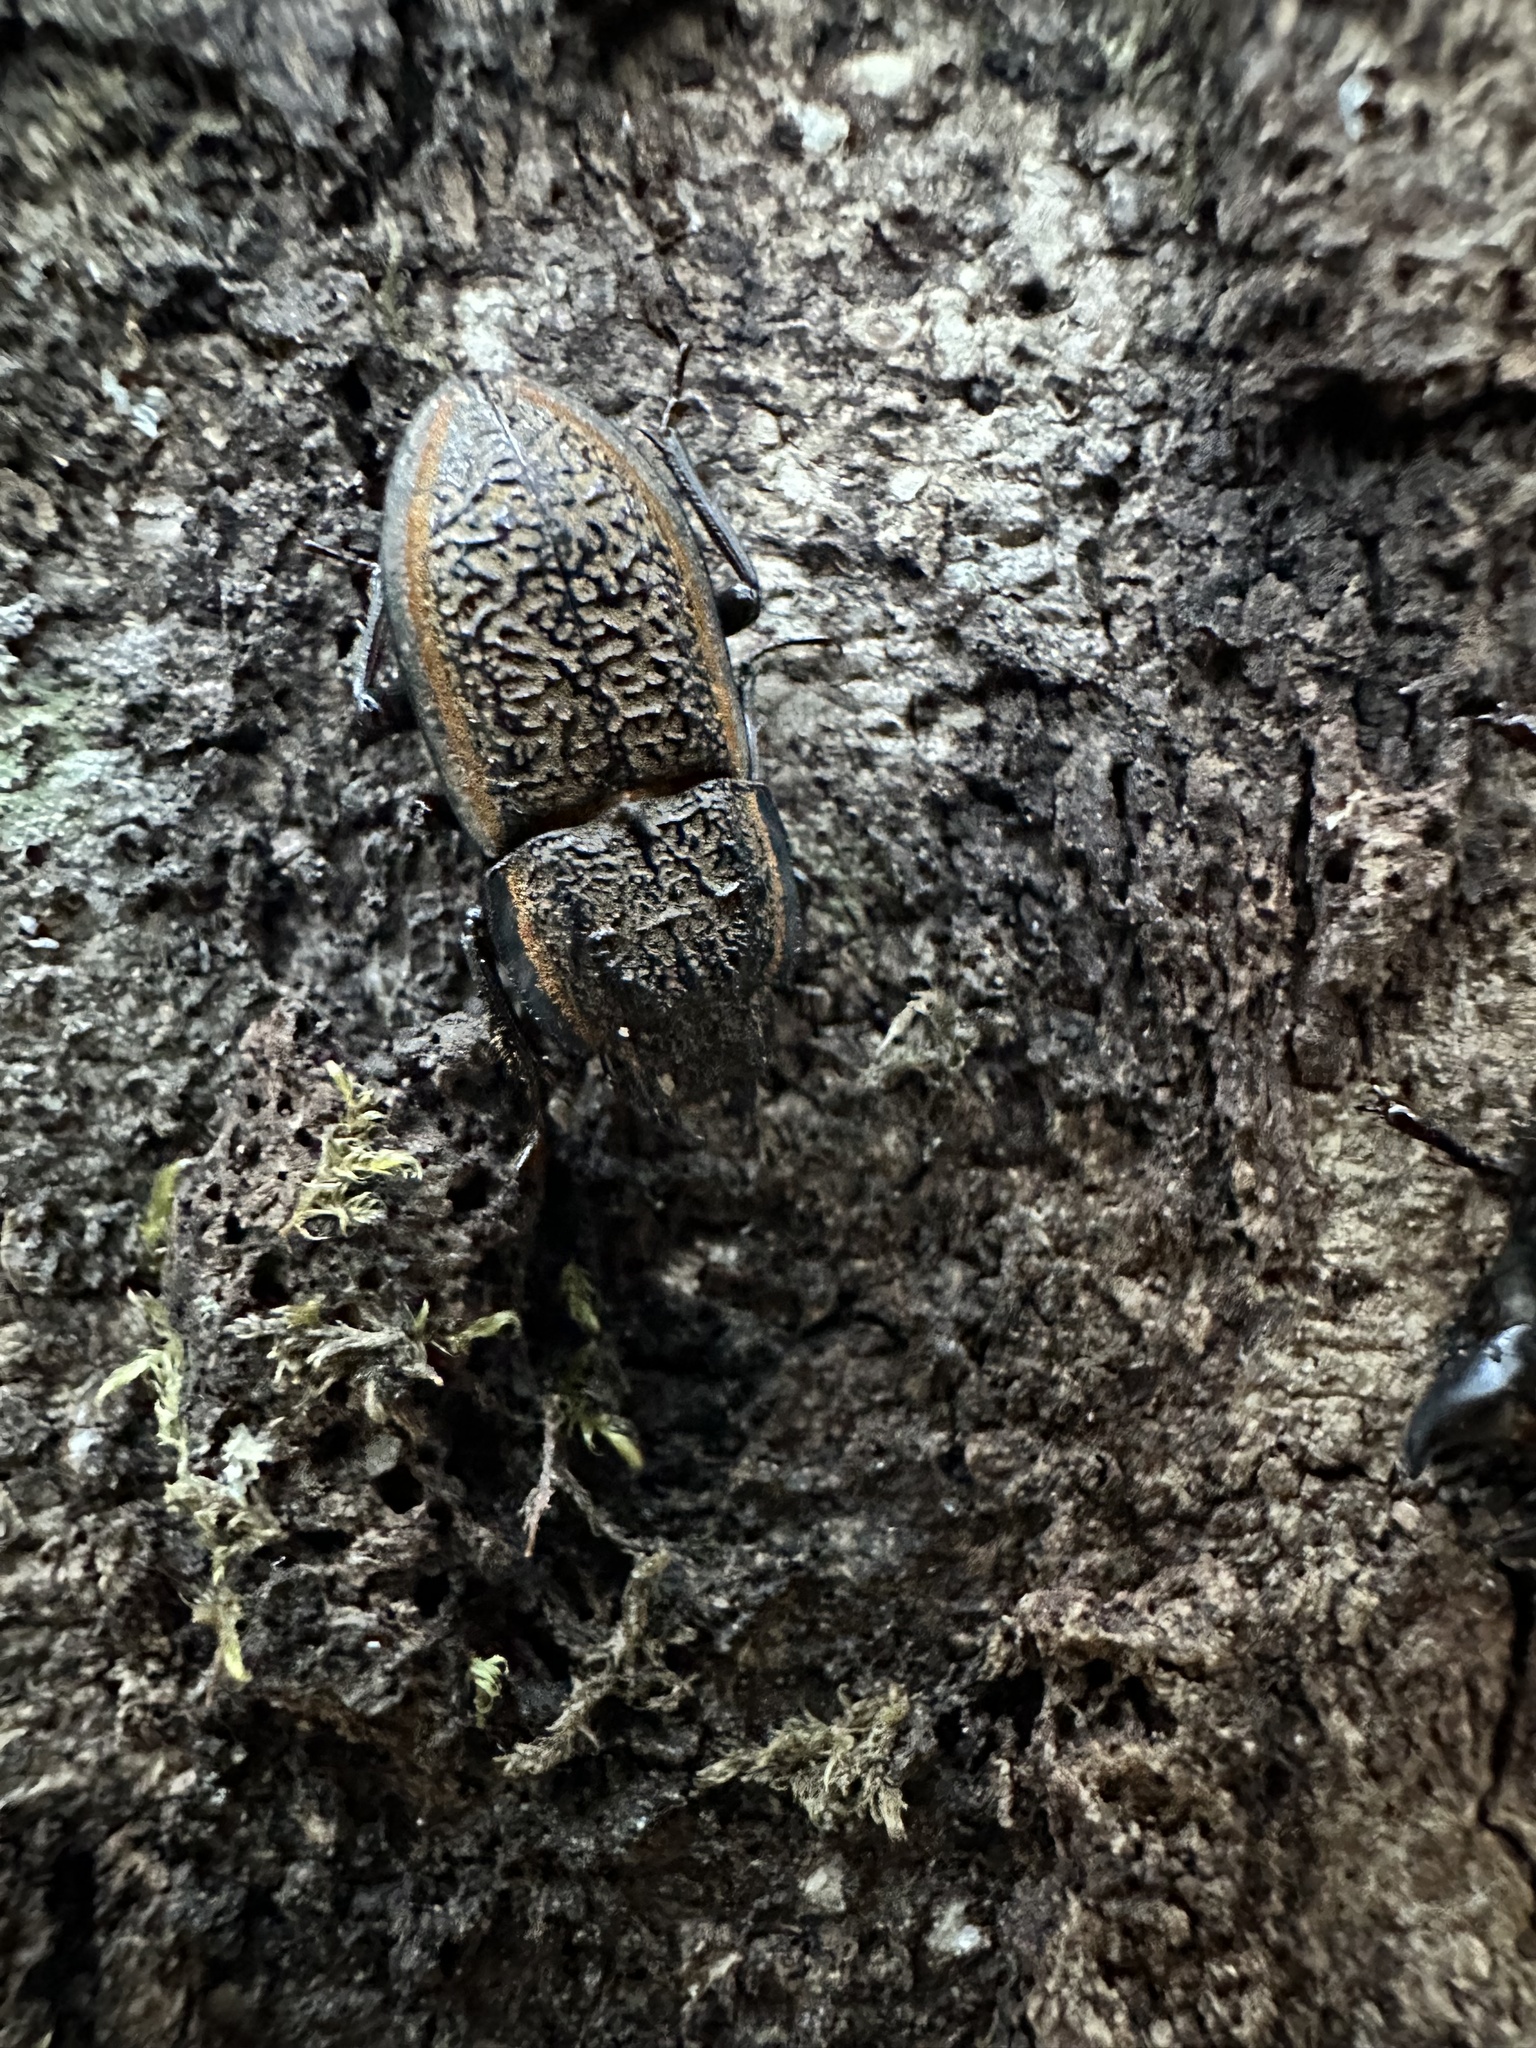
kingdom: Animalia
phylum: Arthropoda
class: Insecta
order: Coleoptera
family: Lucanidae
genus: Erichius
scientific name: Erichius caelatus
